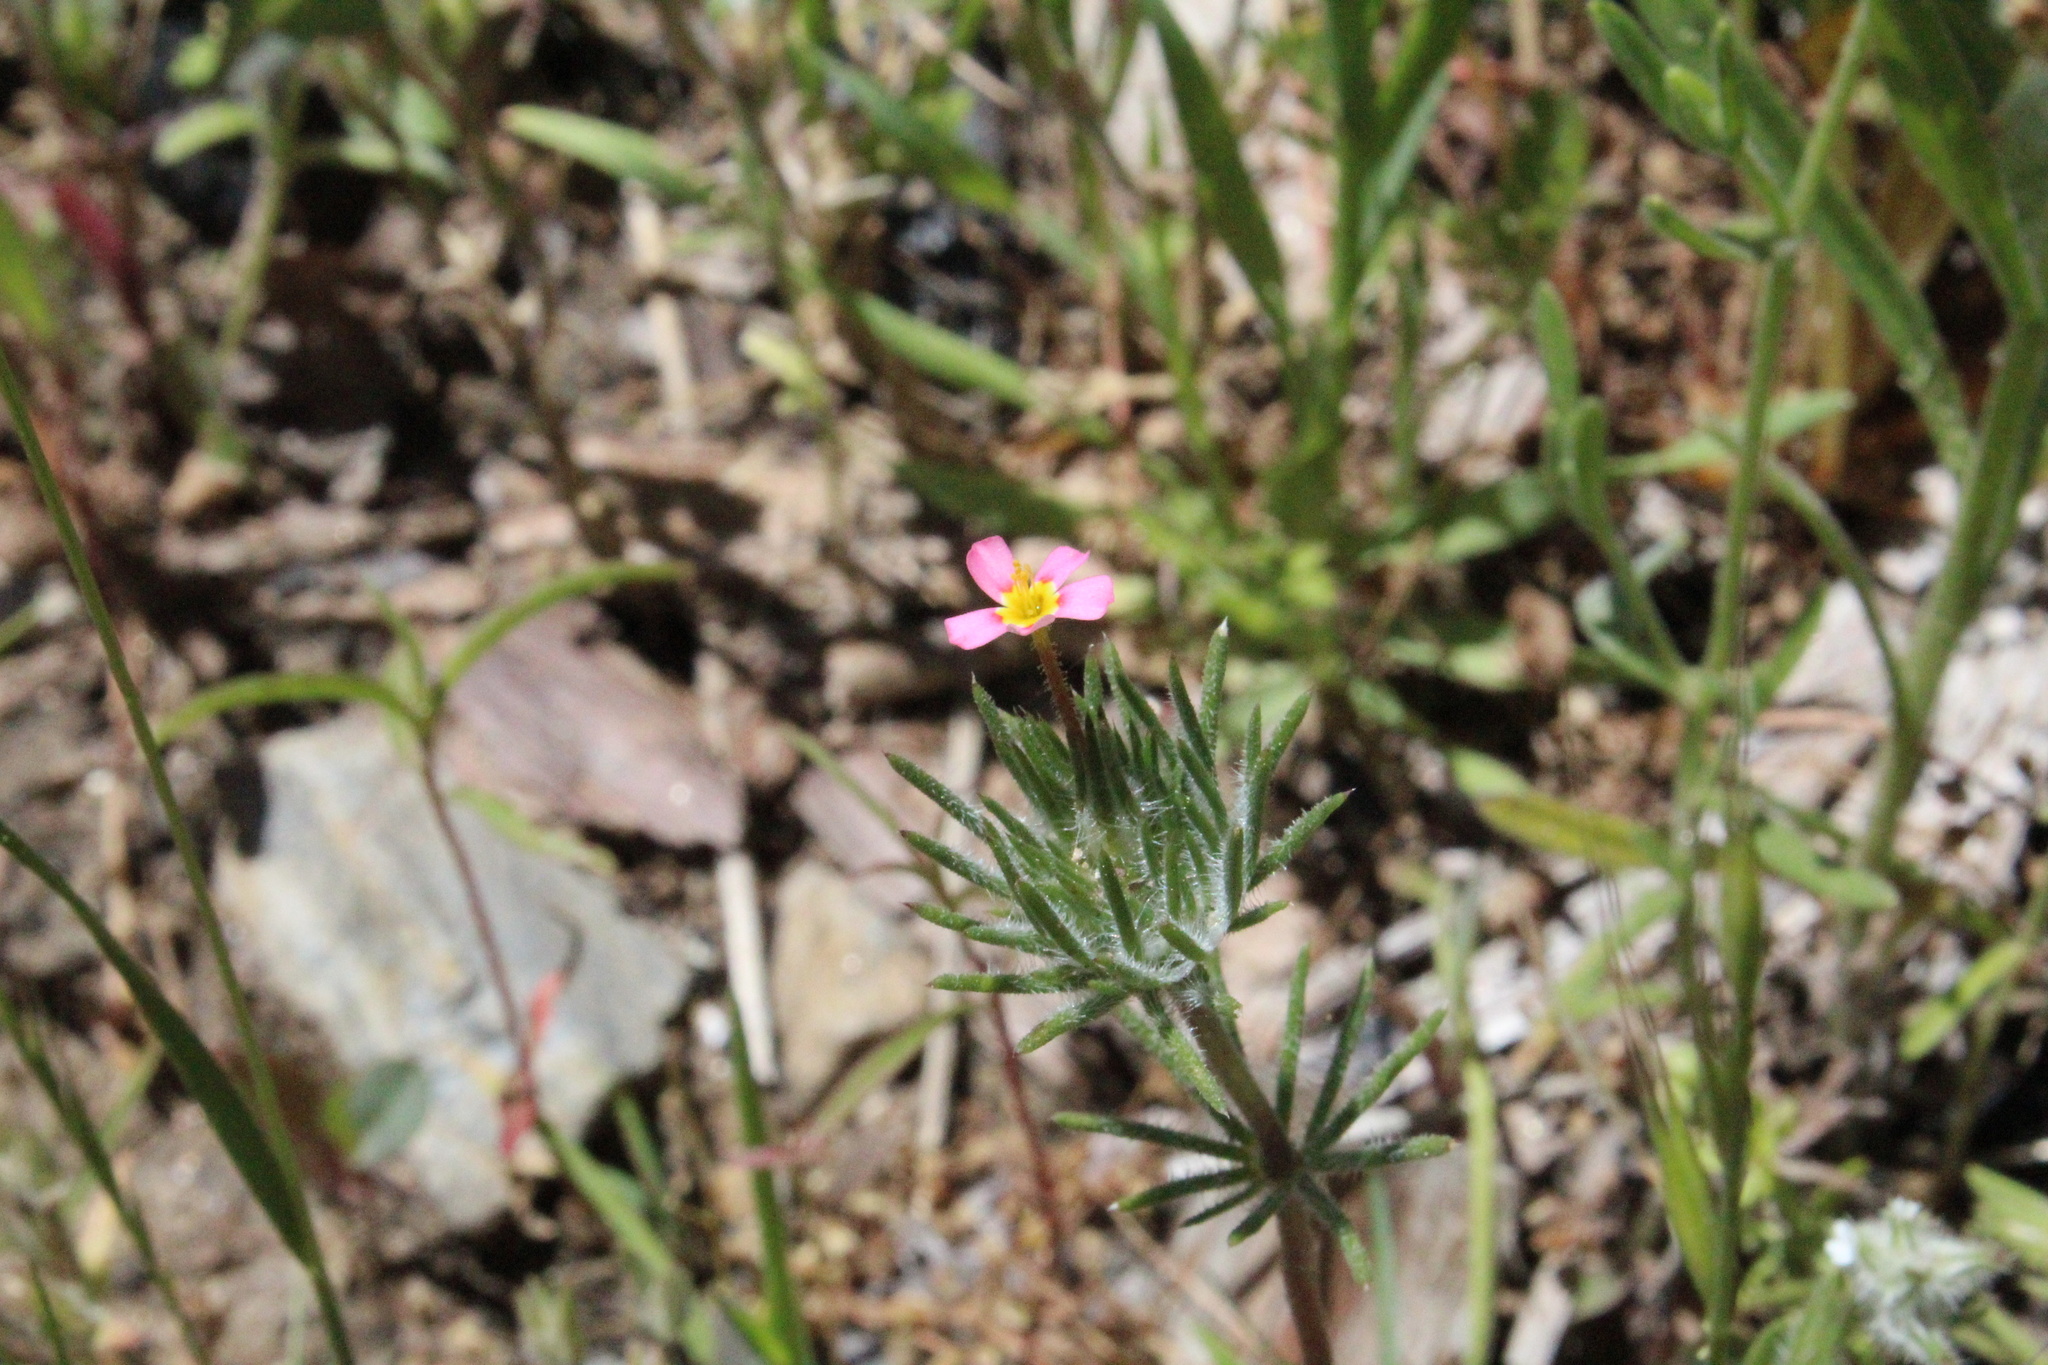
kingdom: Plantae
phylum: Tracheophyta
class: Magnoliopsida
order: Ericales
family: Polemoniaceae
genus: Leptosiphon
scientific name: Leptosiphon ciliatus
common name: Whiskerbrush
